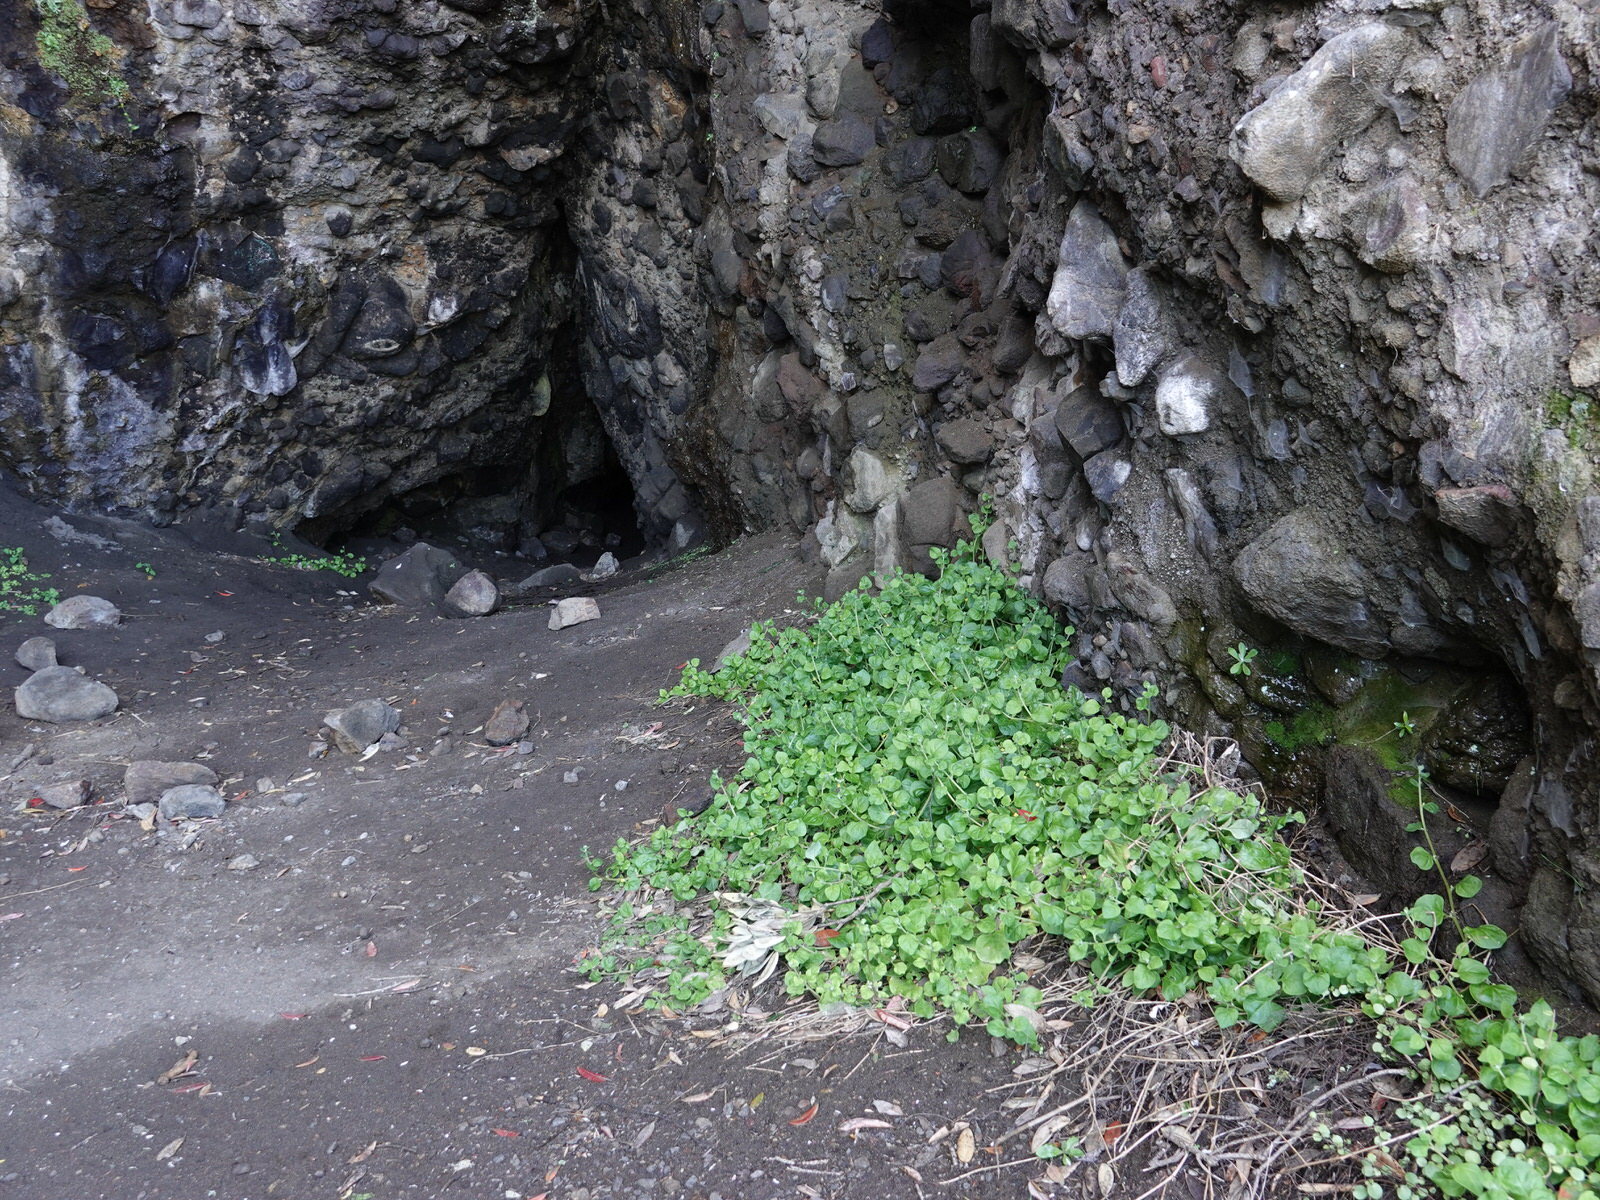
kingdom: Plantae
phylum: Tracheophyta
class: Magnoliopsida
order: Caryophyllales
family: Aizoaceae
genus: Tetragonia
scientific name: Tetragonia implexicoma
